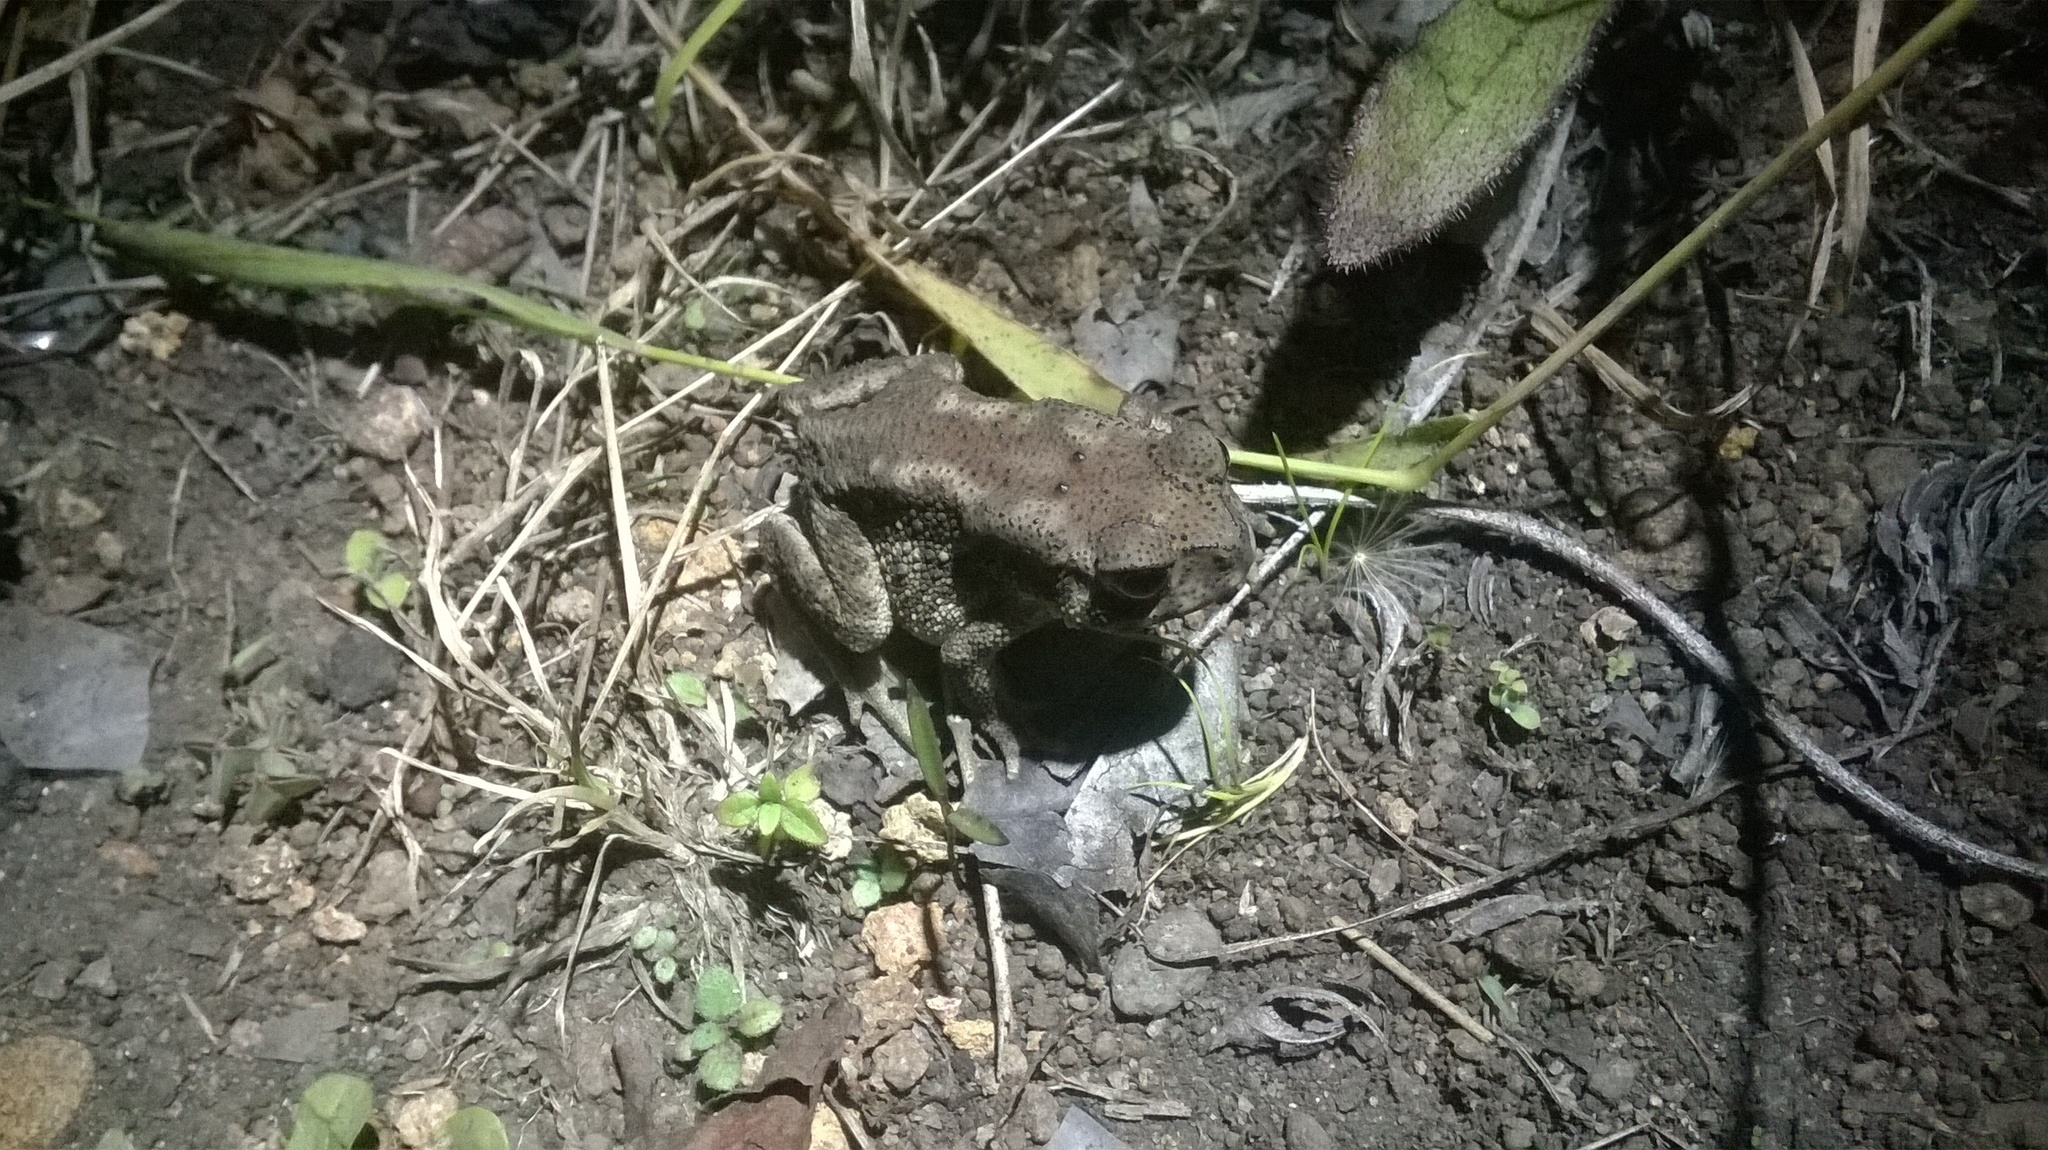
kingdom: Animalia
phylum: Chordata
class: Amphibia
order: Anura
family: Bufonidae
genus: Duttaphrynus
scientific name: Duttaphrynus melanostictus
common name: Common sunda toad
